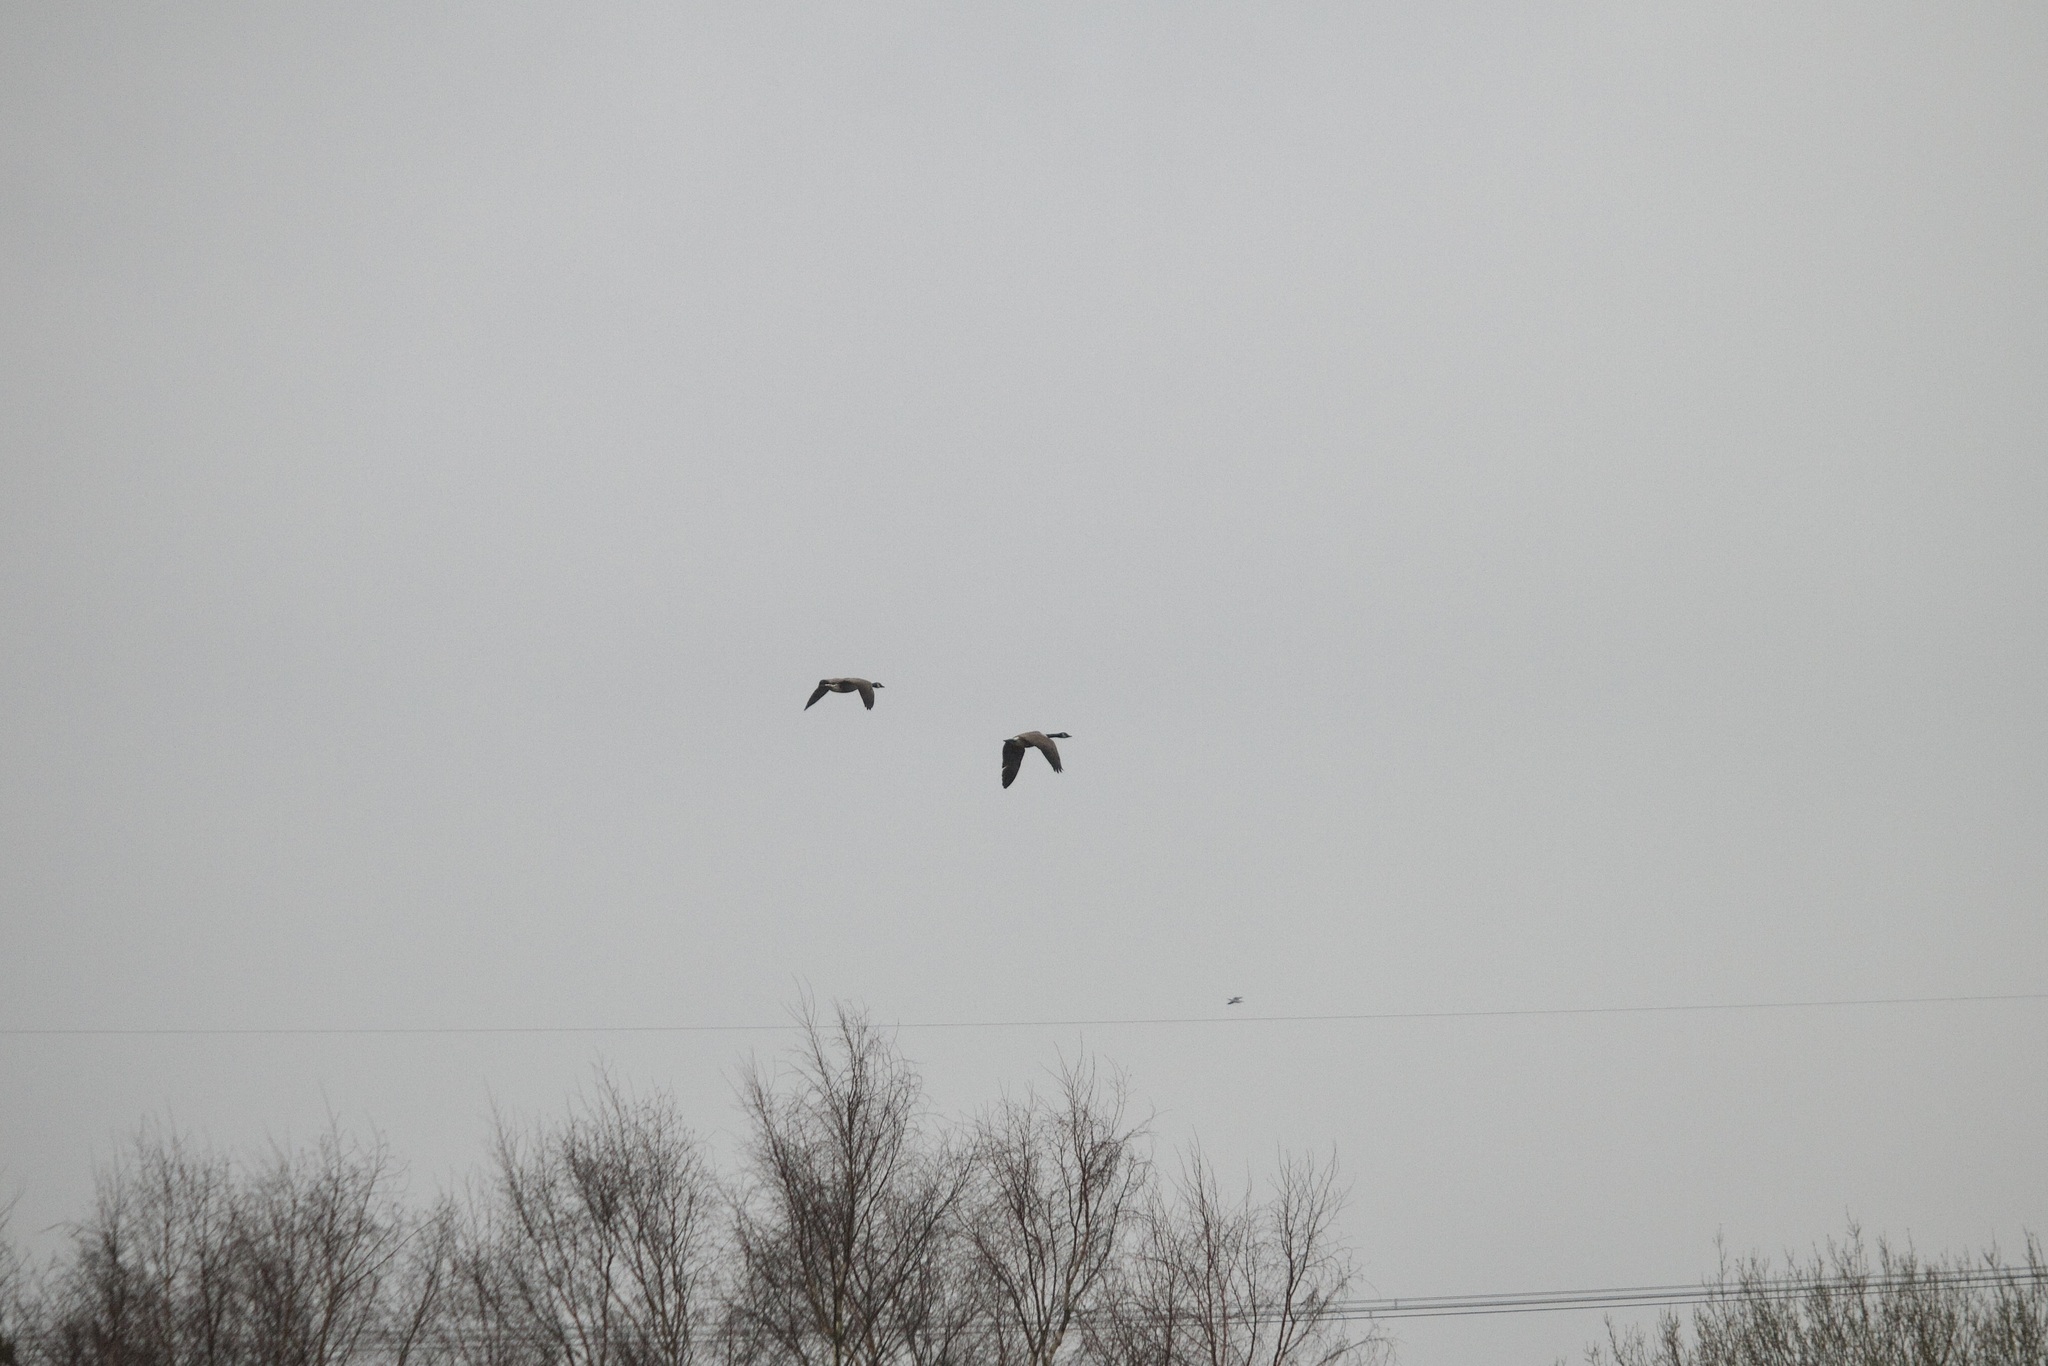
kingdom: Animalia
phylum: Chordata
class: Aves
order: Anseriformes
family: Anatidae
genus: Branta
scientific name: Branta canadensis
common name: Canada goose
